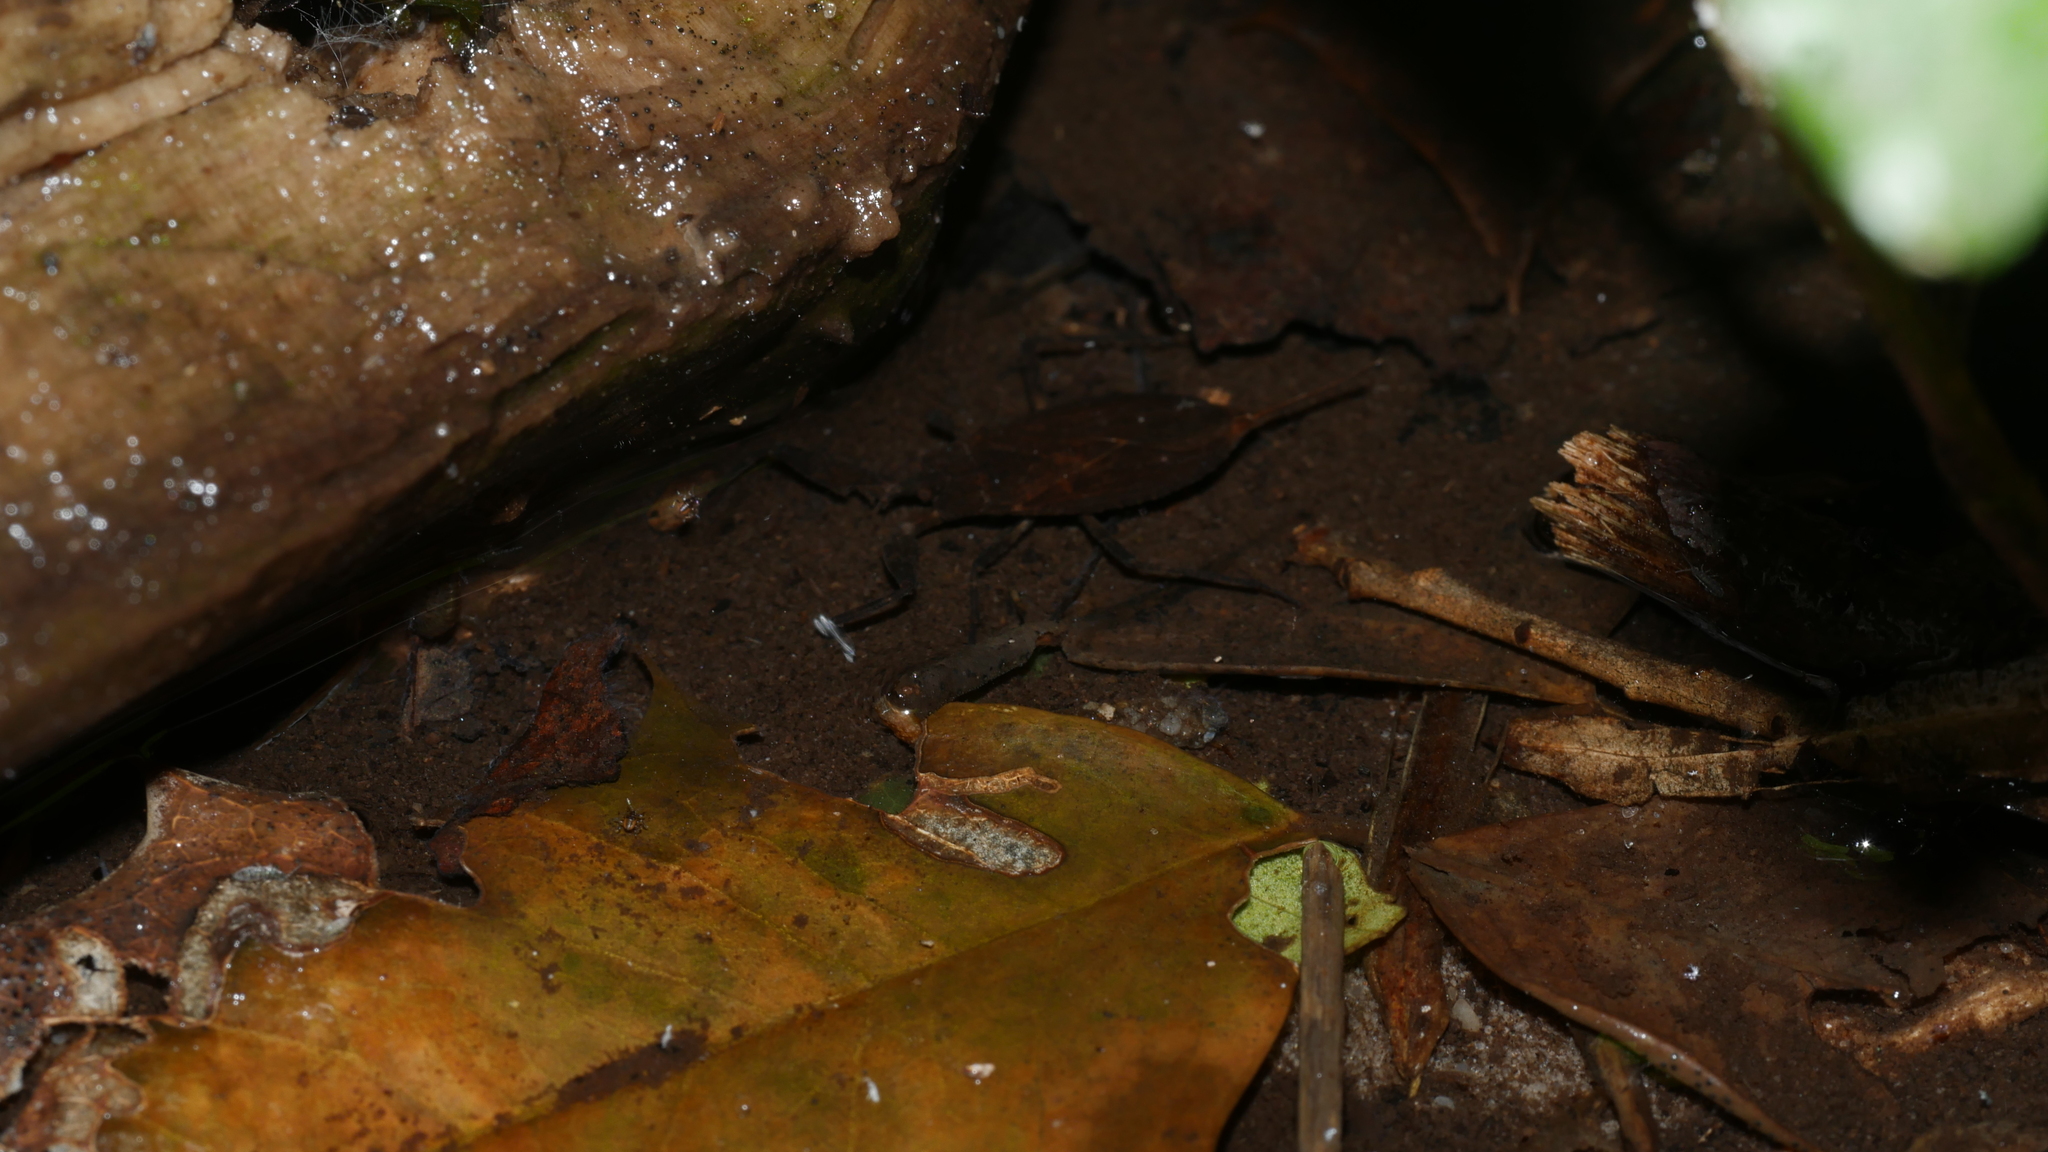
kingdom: Animalia
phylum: Arthropoda
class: Insecta
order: Hemiptera
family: Nepidae
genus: Nepa
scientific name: Nepa apiculata
